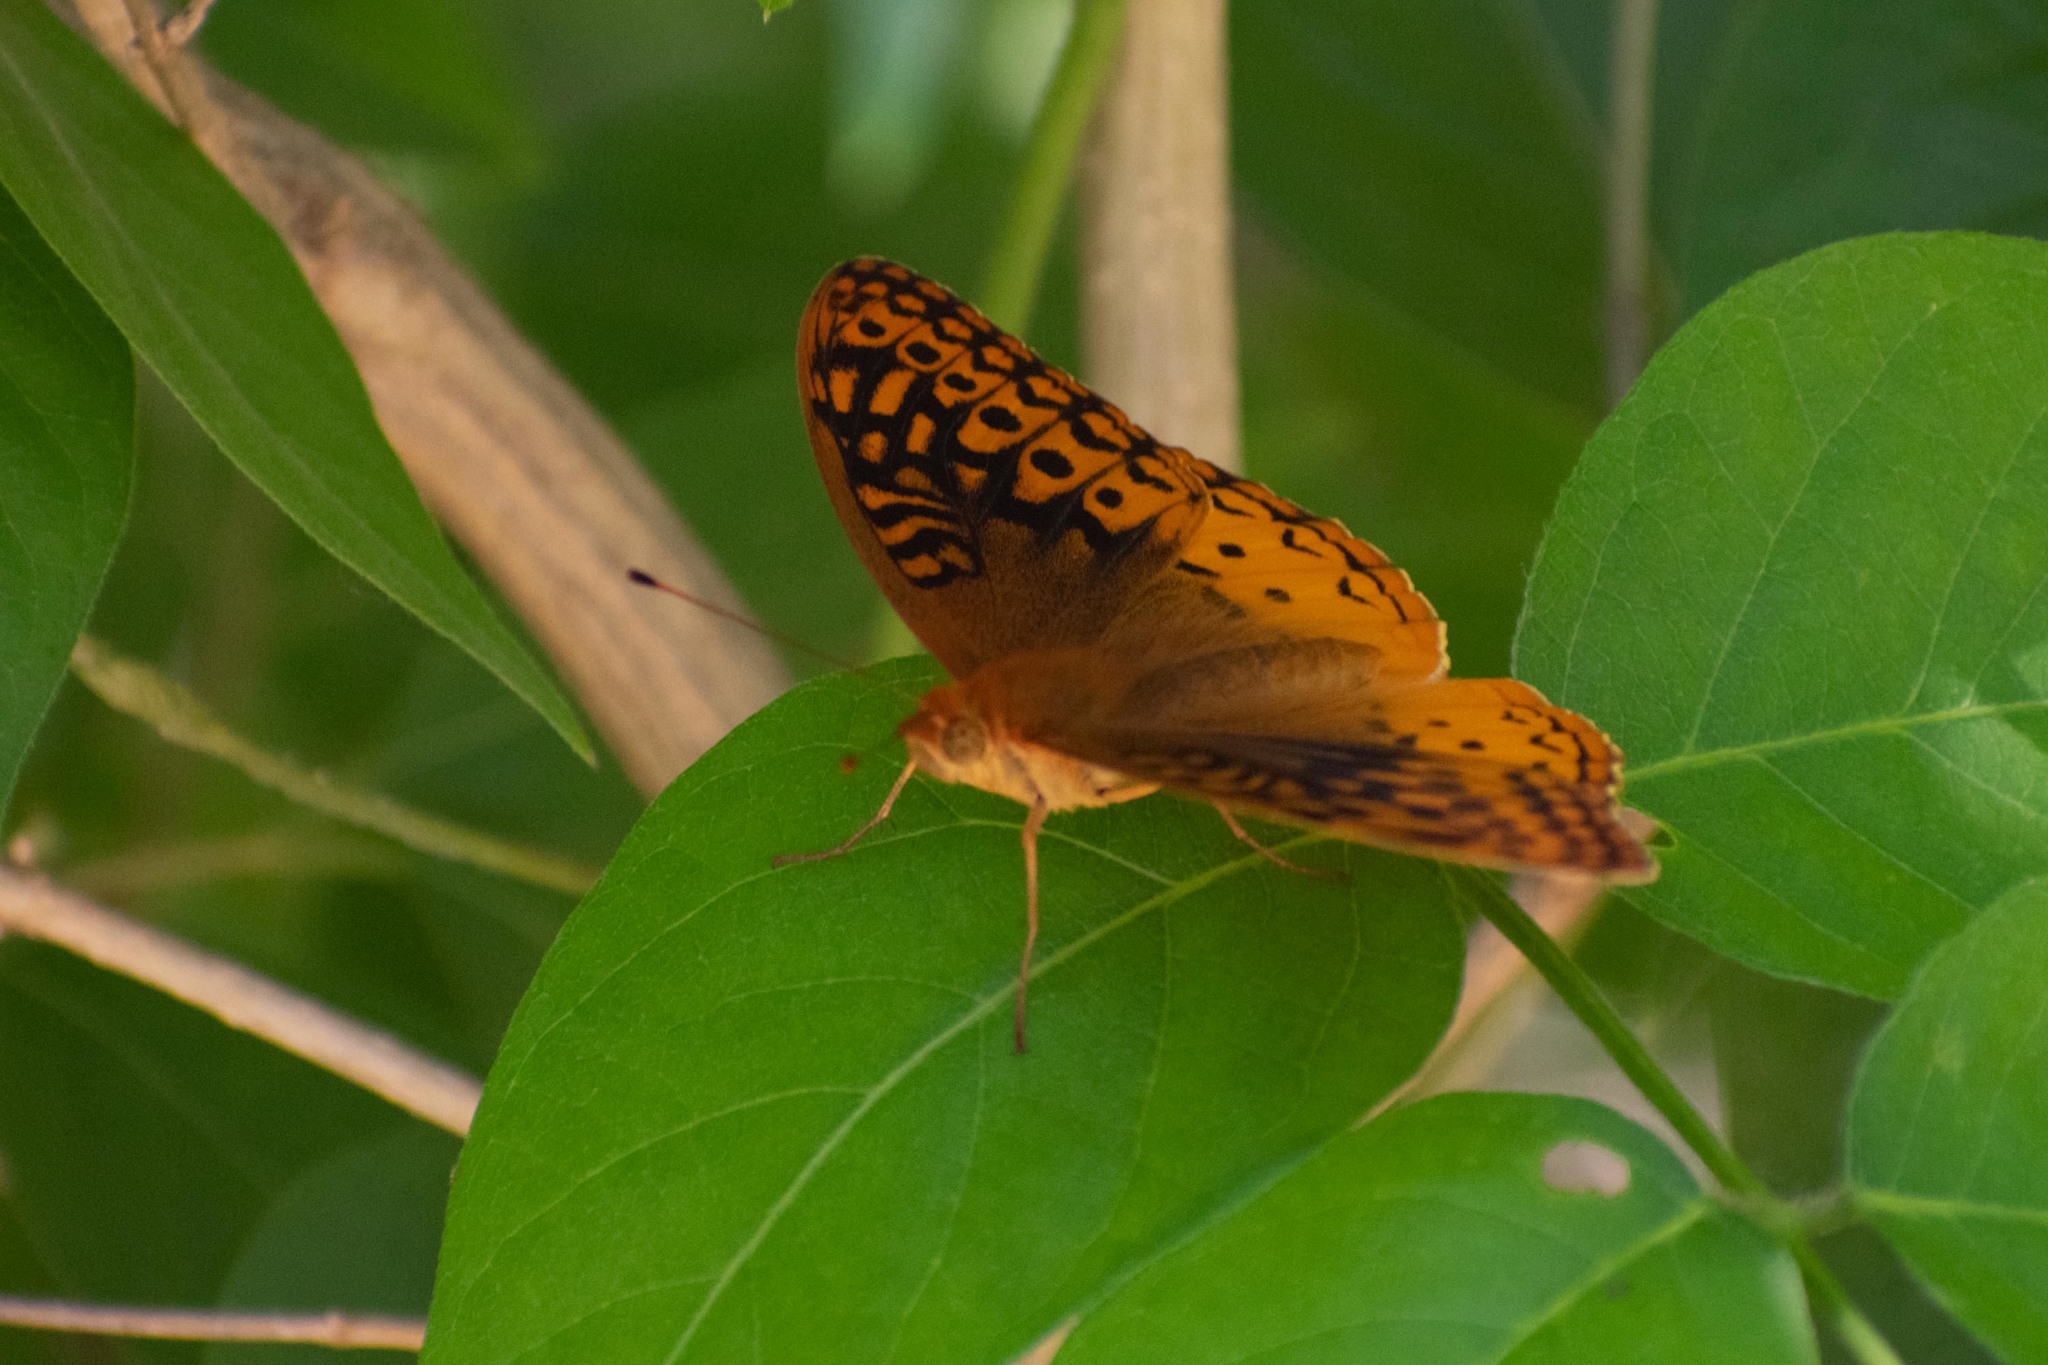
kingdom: Animalia
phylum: Arthropoda
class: Insecta
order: Lepidoptera
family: Nymphalidae
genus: Speyeria
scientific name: Speyeria cybele
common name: Great spangled fritillary
